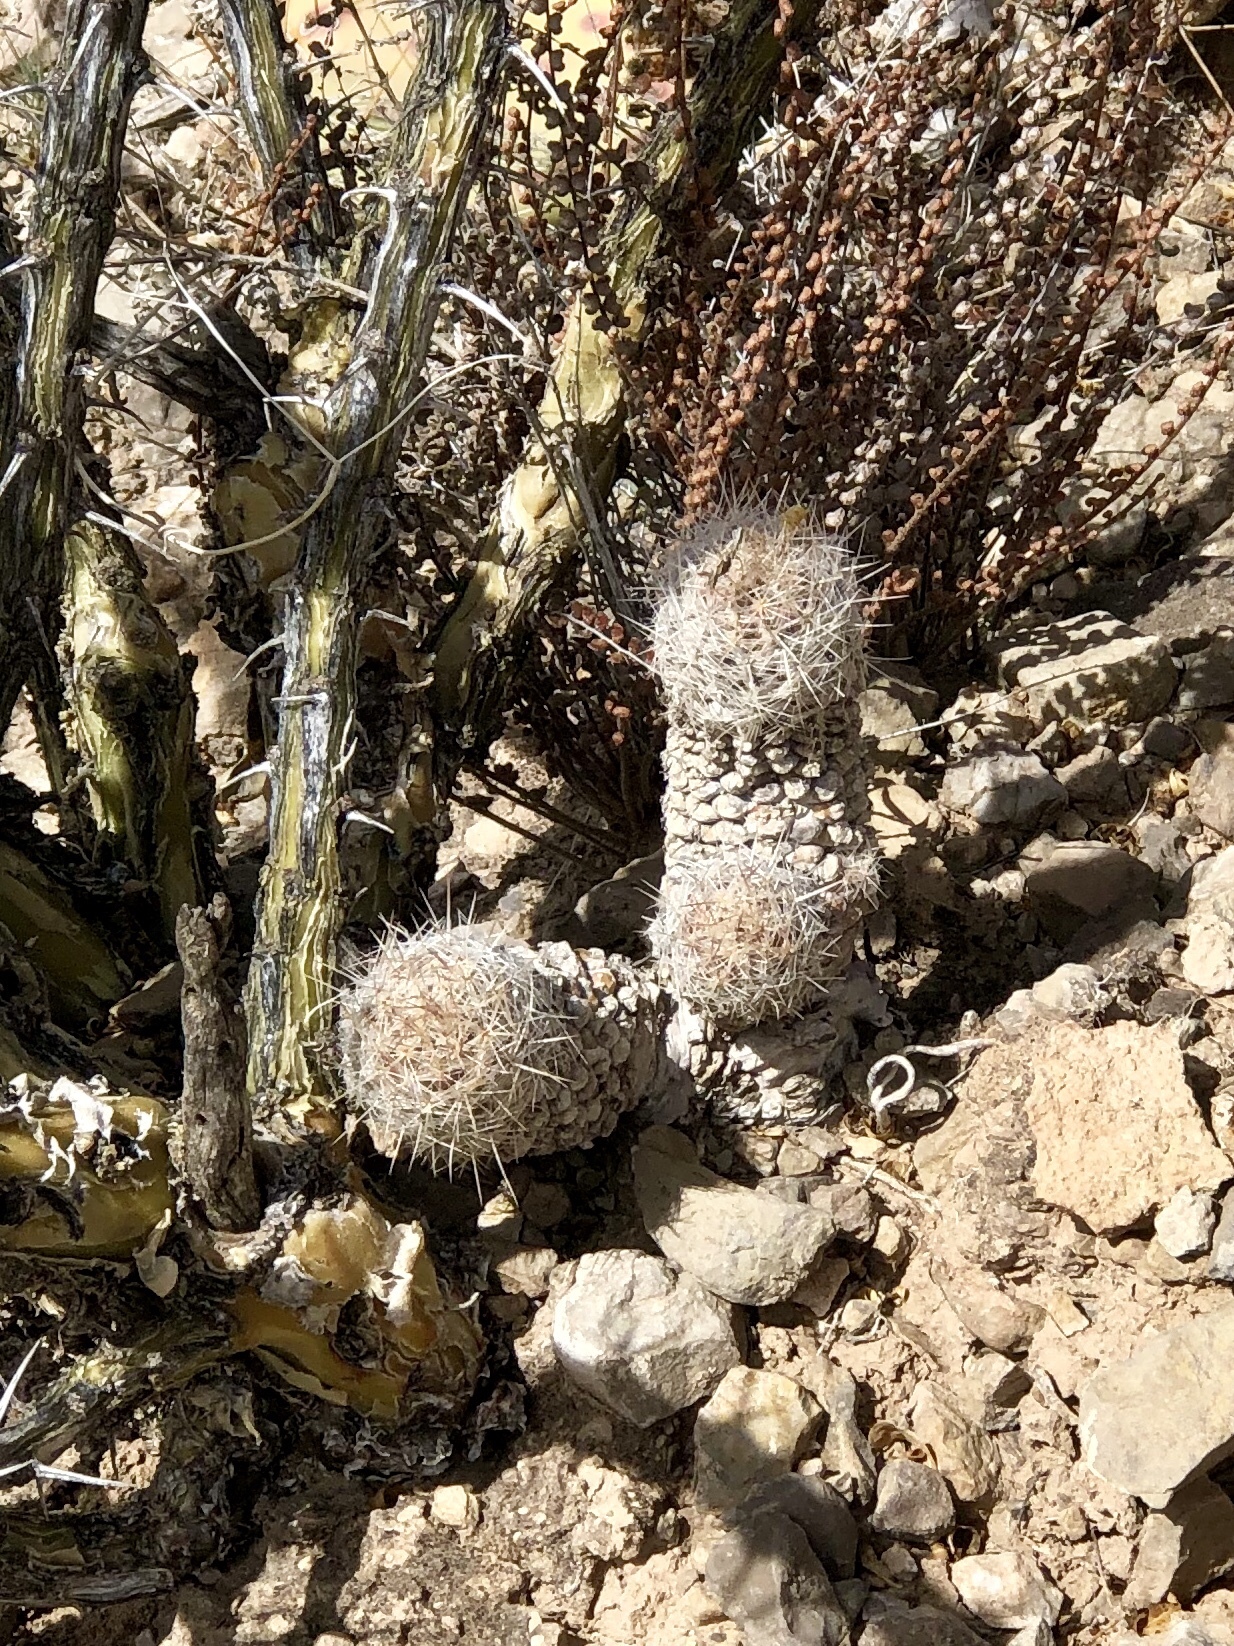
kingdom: Plantae
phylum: Tracheophyta
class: Magnoliopsida
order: Caryophyllales
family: Cactaceae
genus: Pelecyphora
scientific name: Pelecyphora tuberculosa
